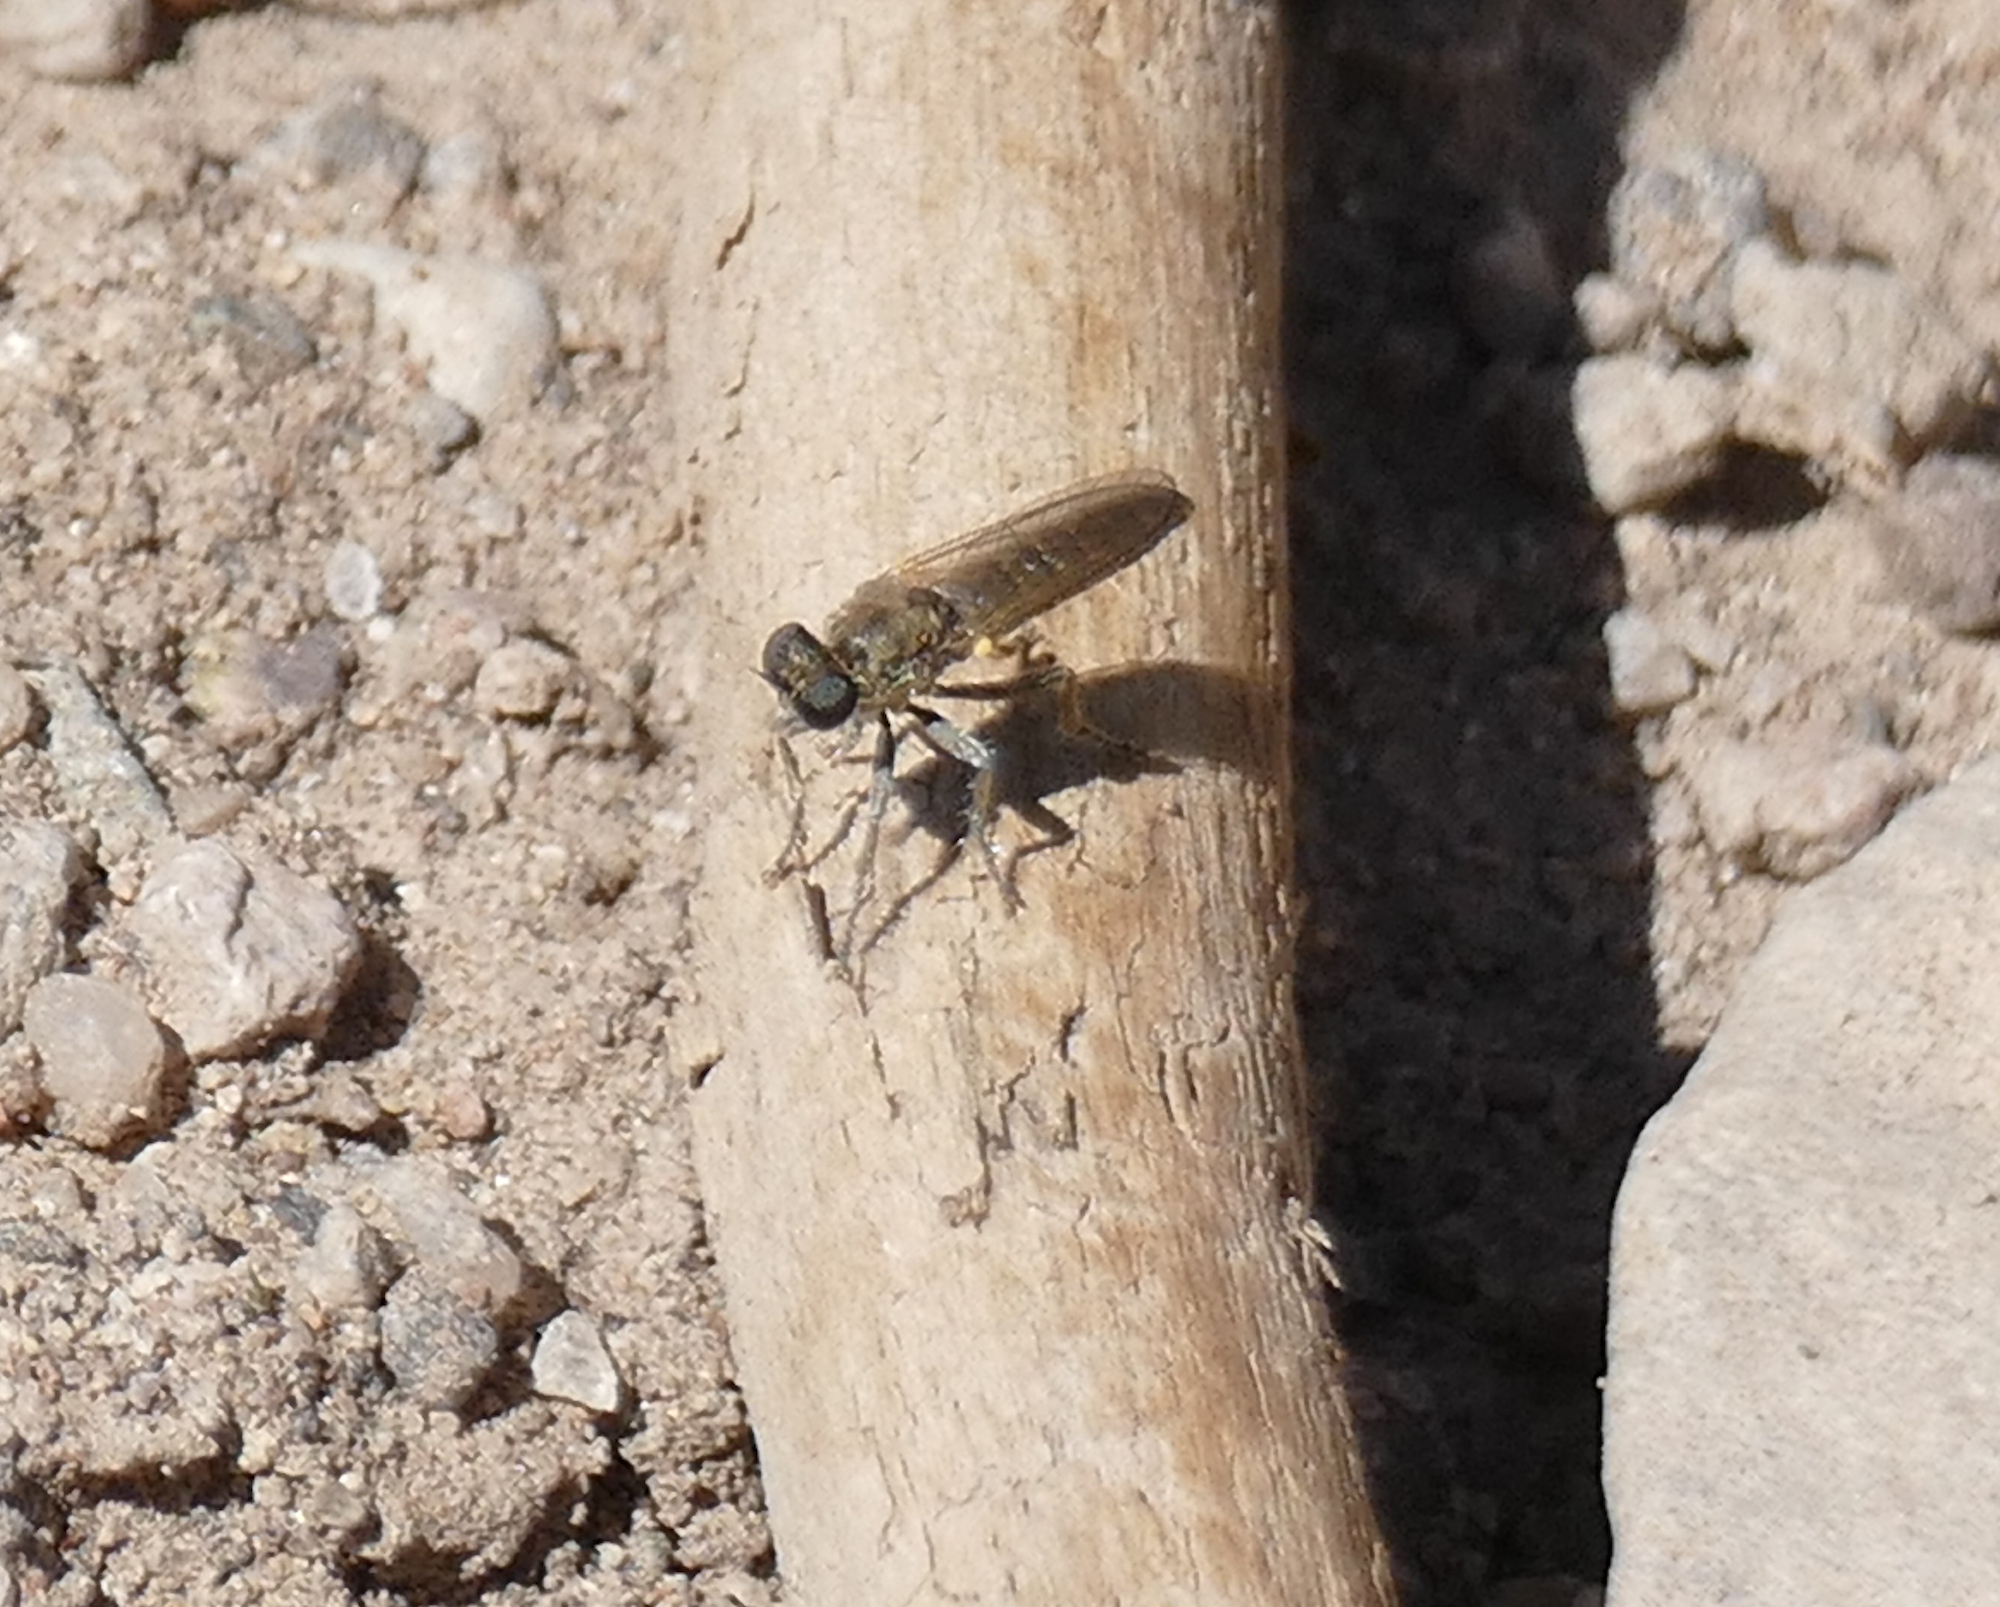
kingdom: Animalia
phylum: Arthropoda
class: Insecta
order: Diptera
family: Asilidae
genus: Stichopogon
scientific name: Stichopogon arenicola
